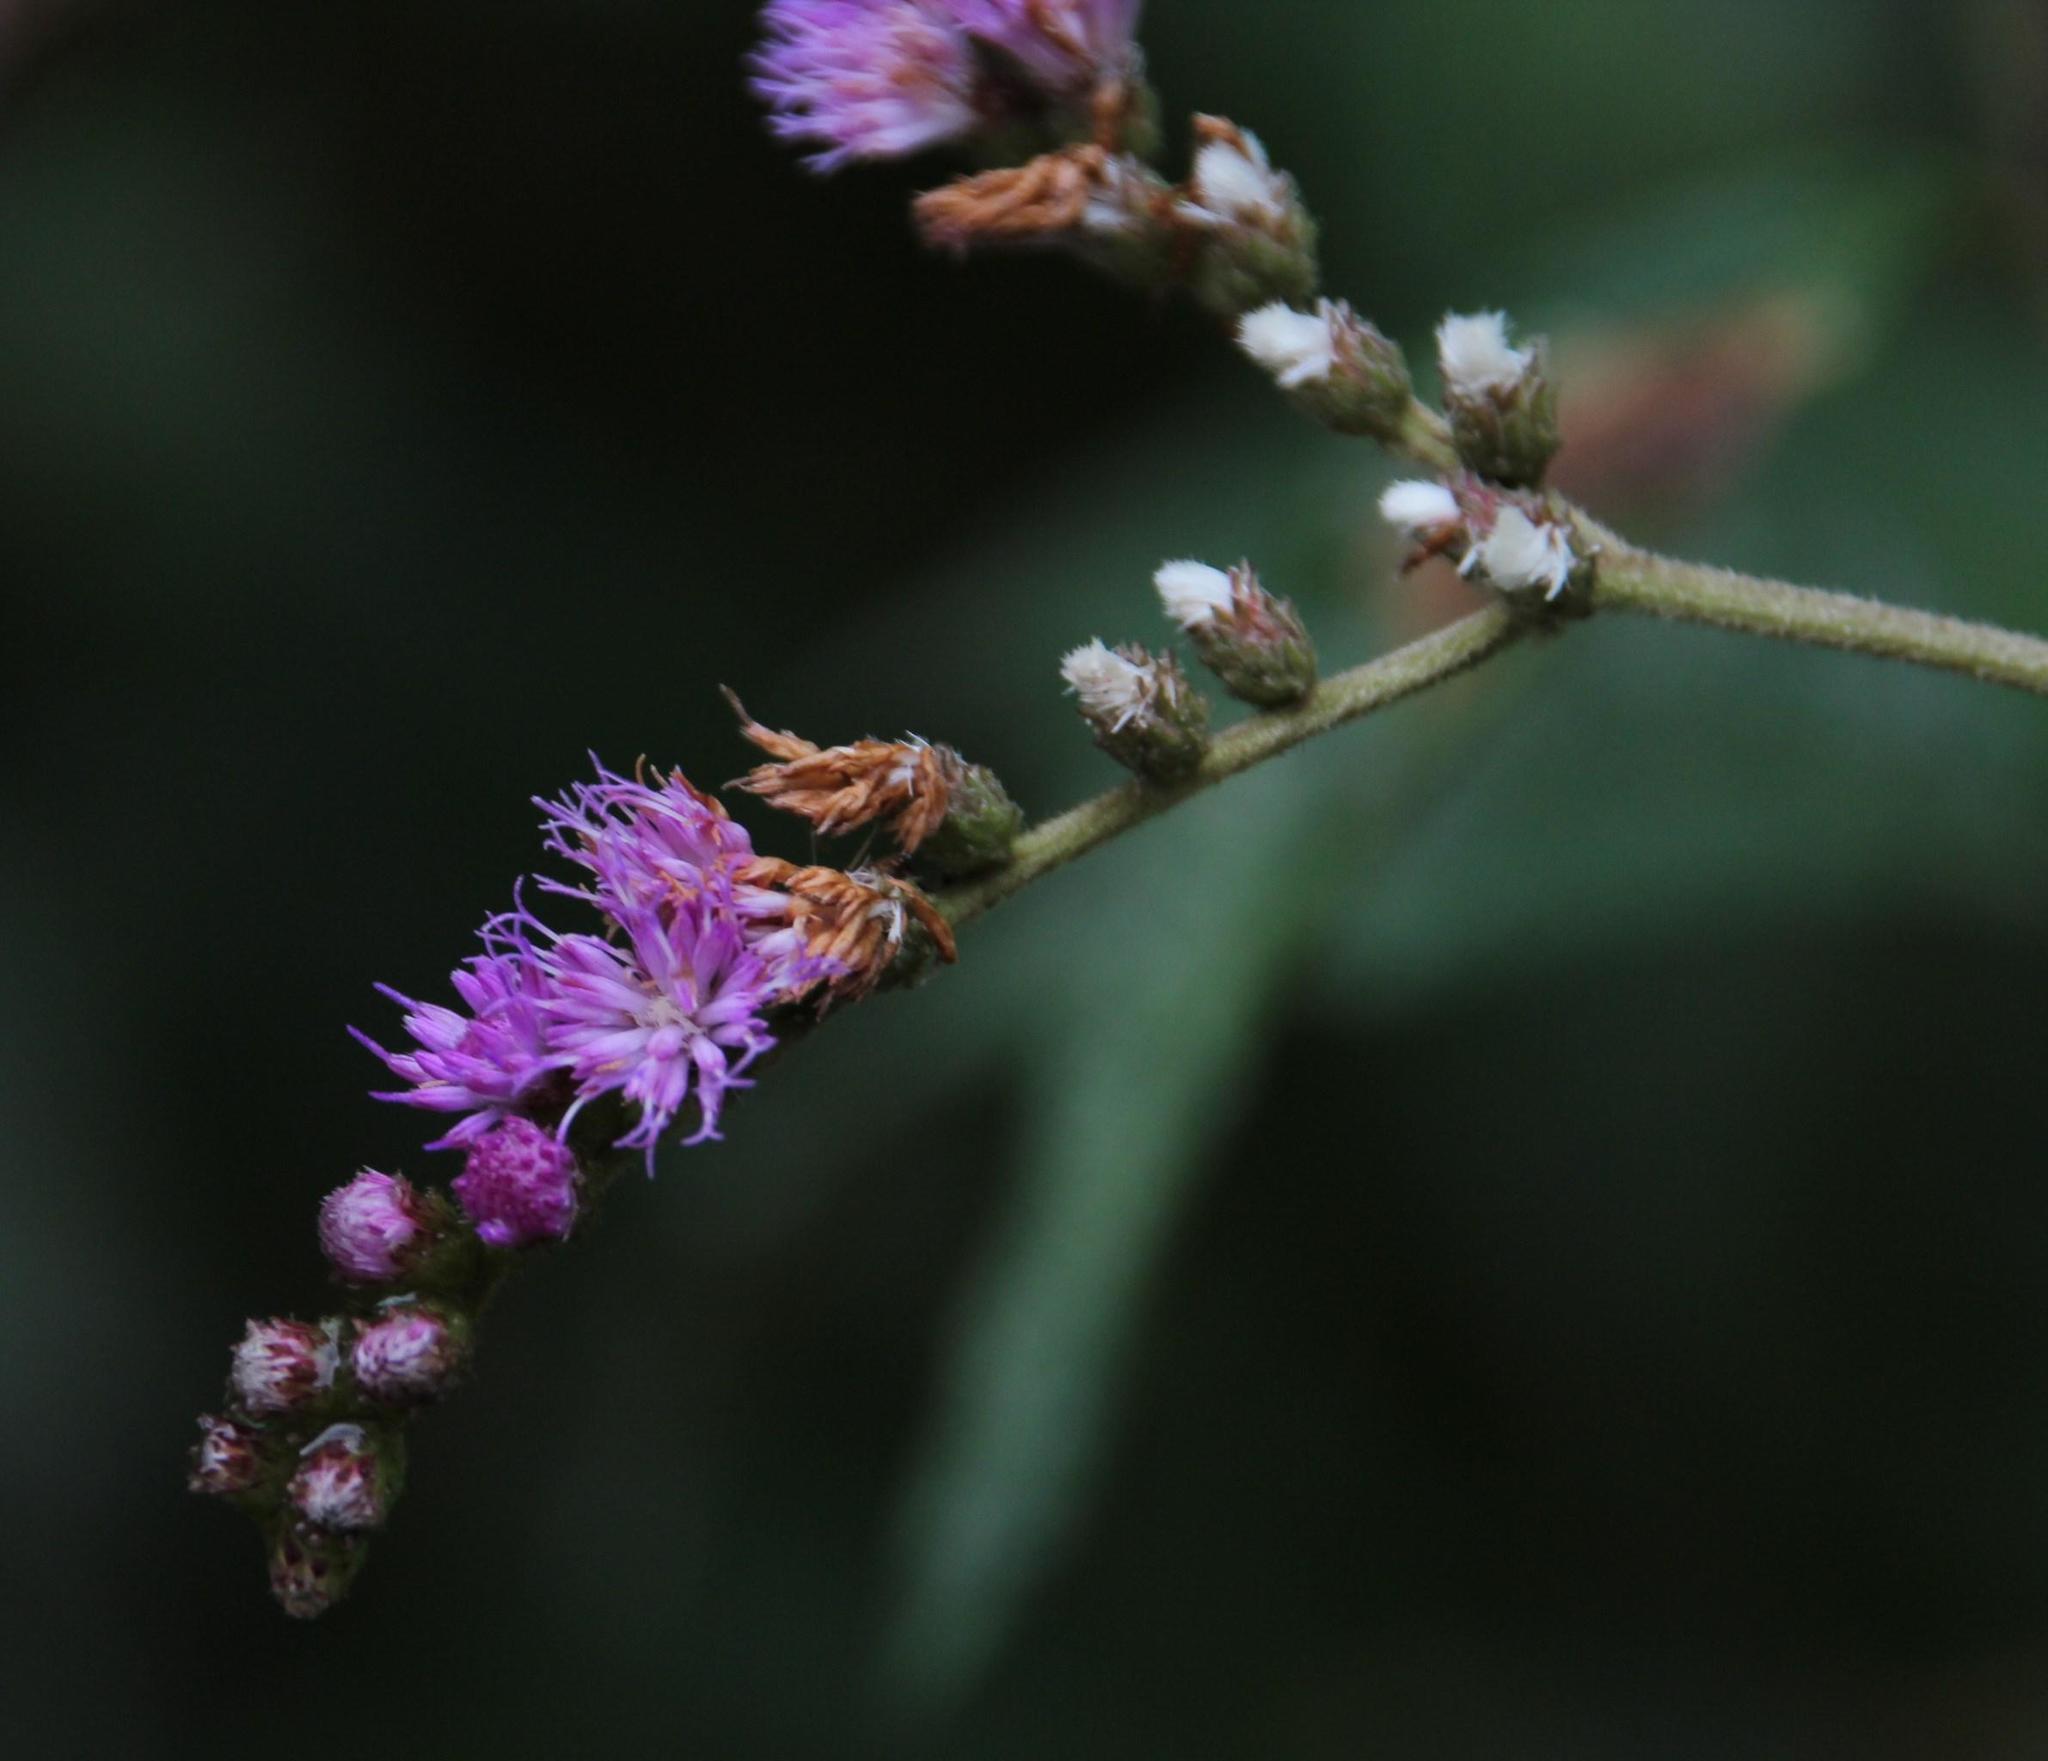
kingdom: Plantae
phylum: Tracheophyta
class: Magnoliopsida
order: Asterales
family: Asteraceae
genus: Cyrtocymura
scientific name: Cyrtocymura scorpioides
